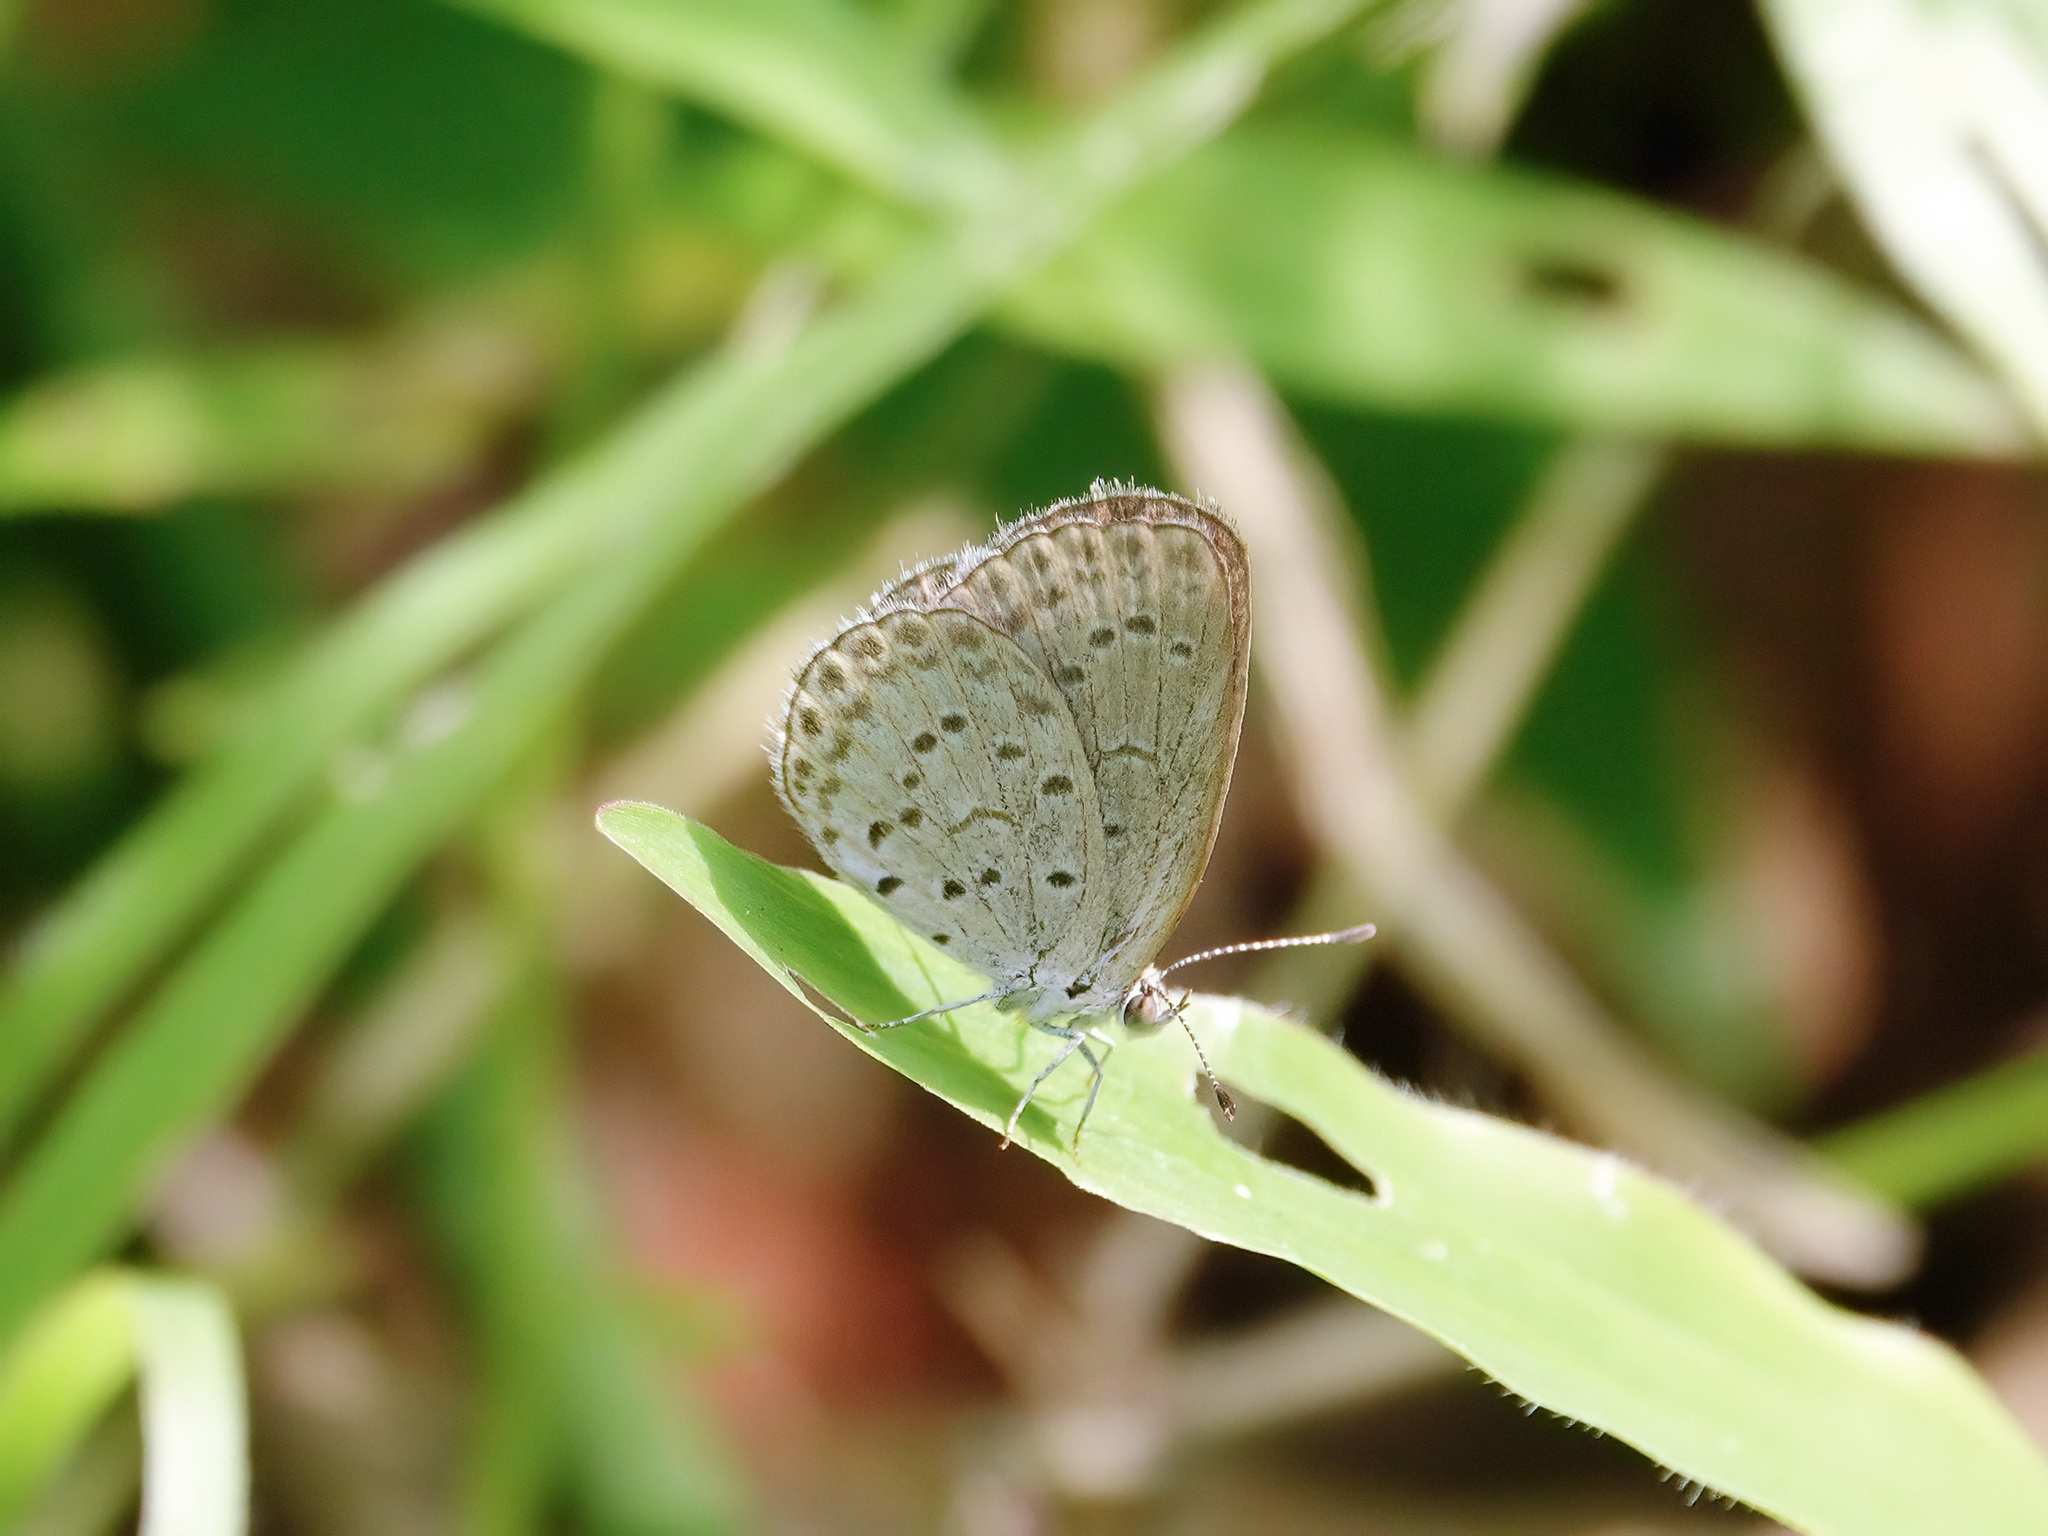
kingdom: Animalia
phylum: Arthropoda
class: Insecta
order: Lepidoptera
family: Lycaenidae
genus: Pseudozizeeria
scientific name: Pseudozizeeria maha
